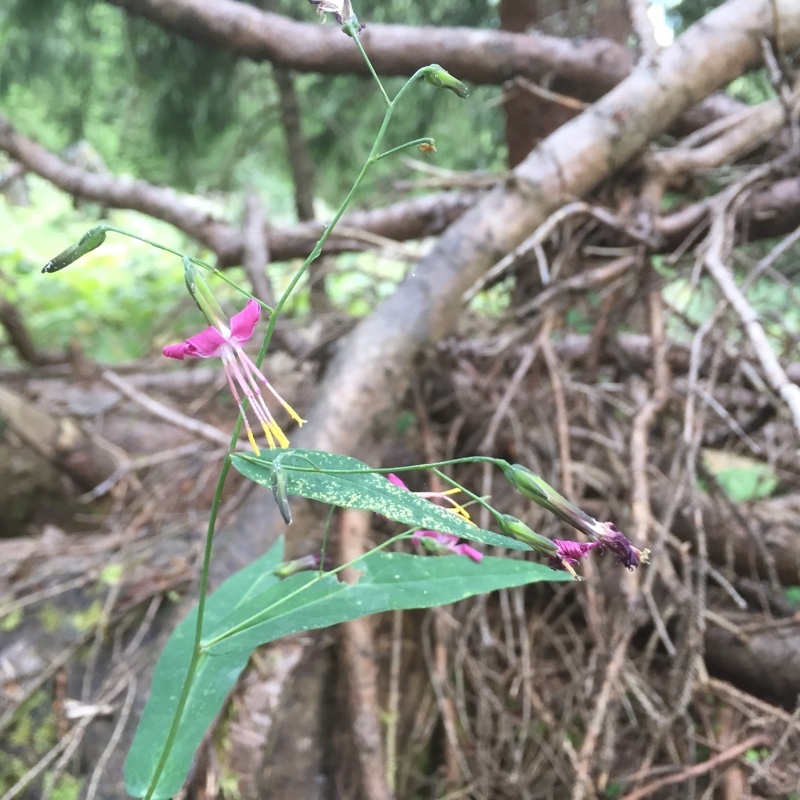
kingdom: Plantae
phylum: Tracheophyta
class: Magnoliopsida
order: Asterales
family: Asteraceae
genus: Prenanthes
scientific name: Prenanthes purpurea
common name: Purple lettuce
